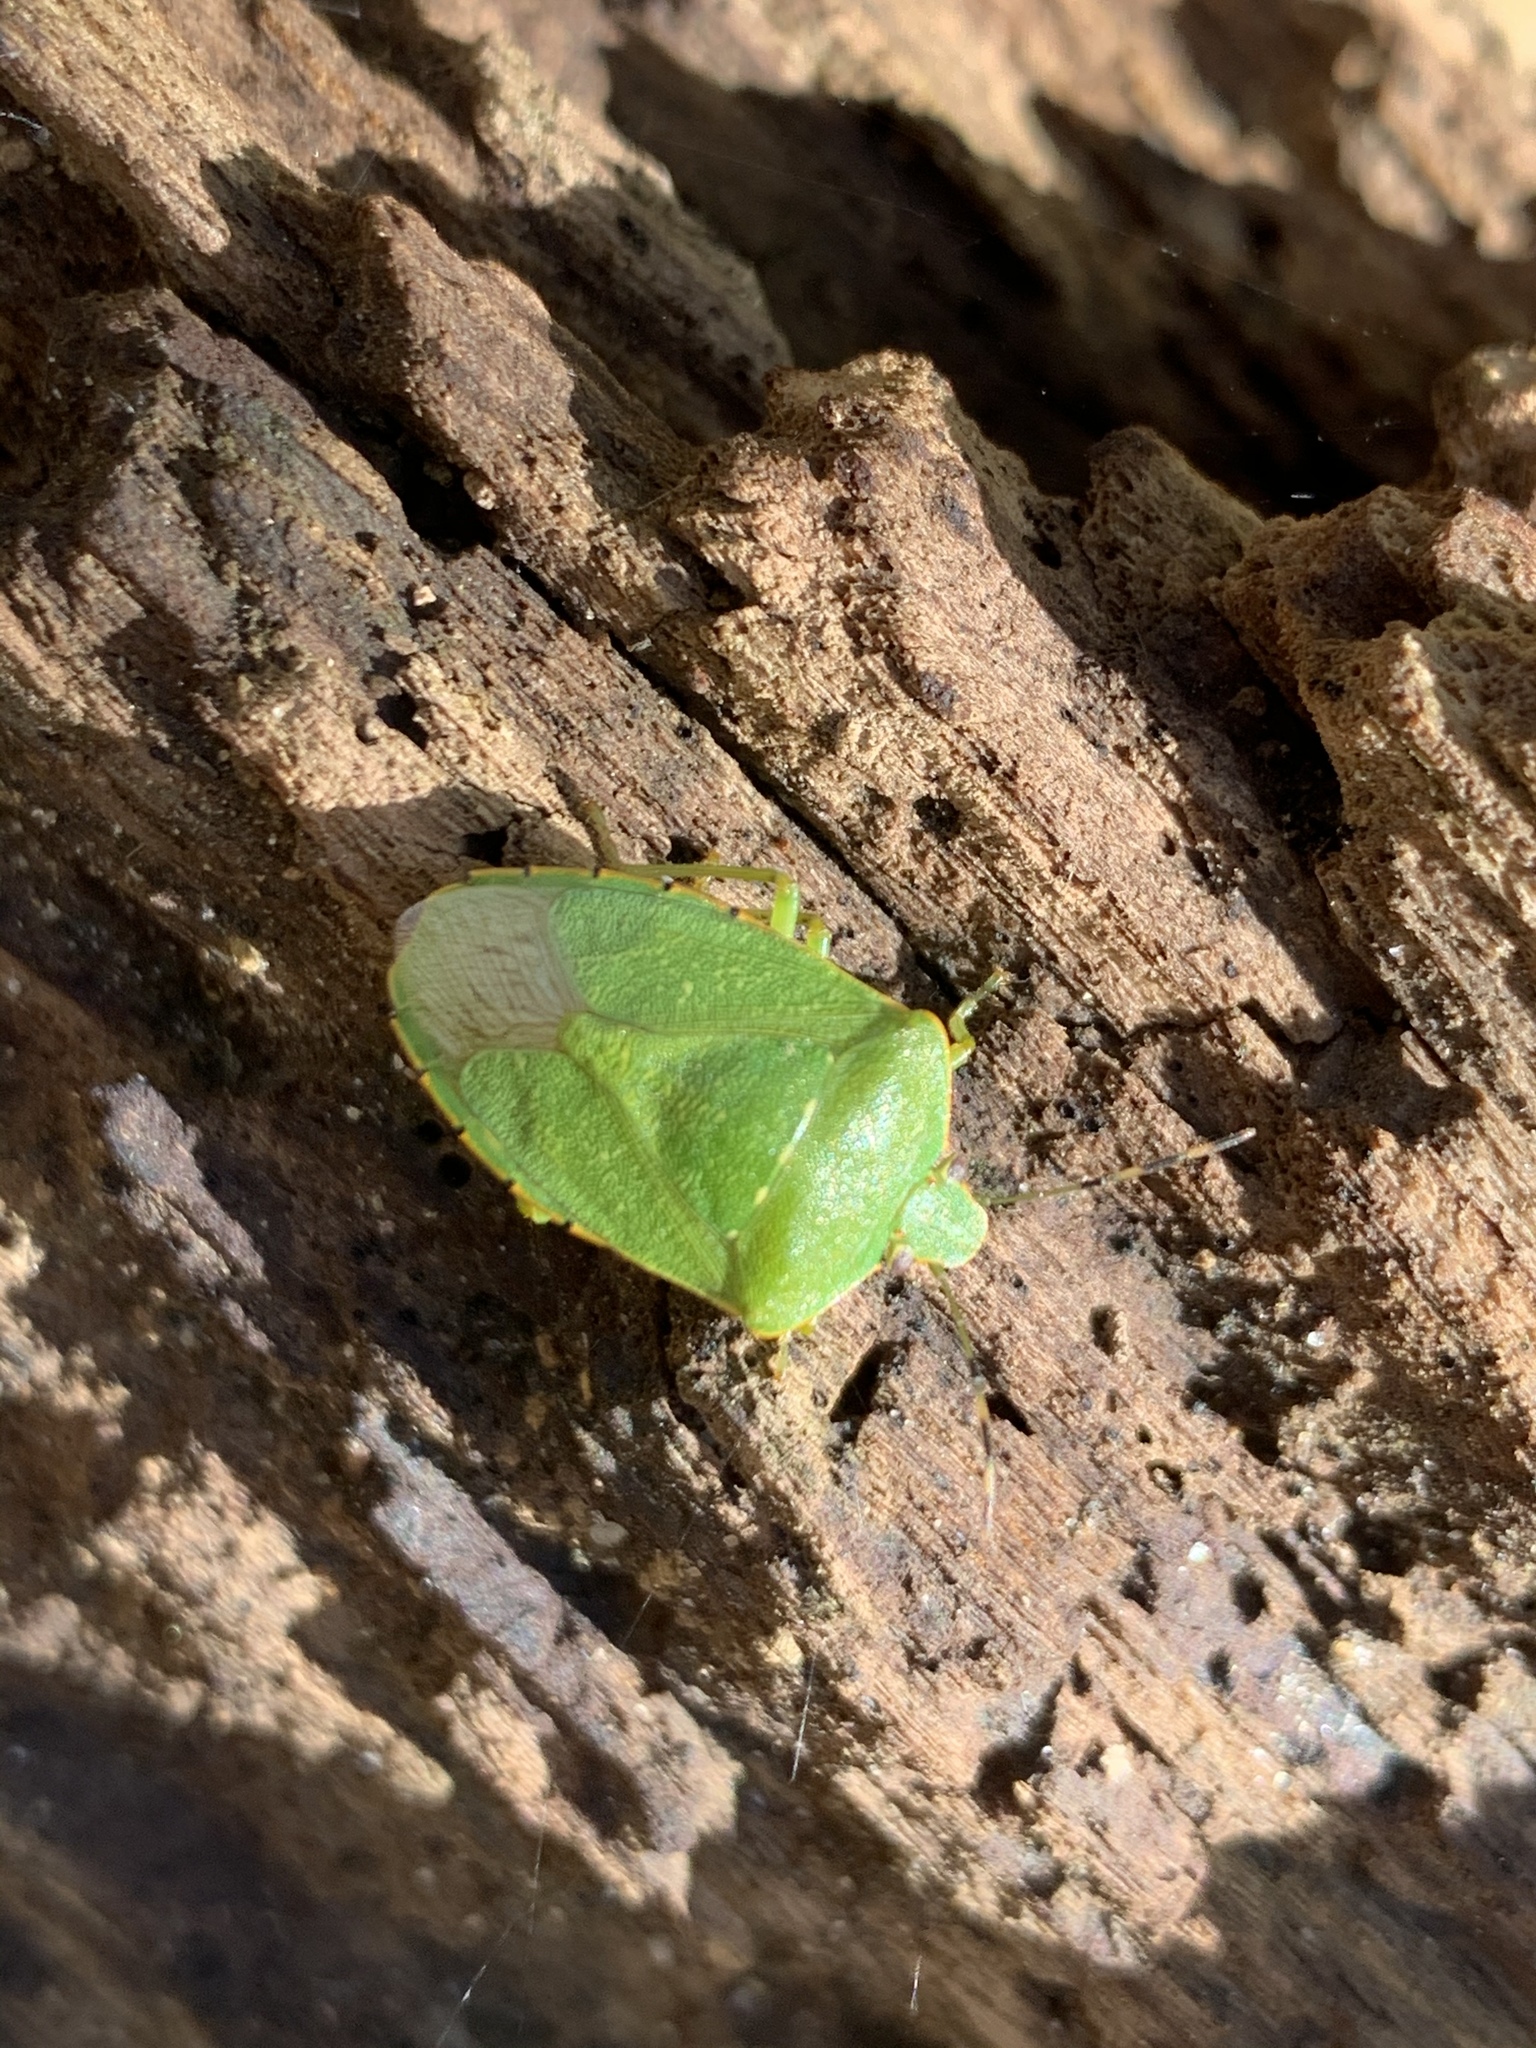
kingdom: Animalia
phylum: Arthropoda
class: Insecta
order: Hemiptera
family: Pentatomidae
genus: Chinavia
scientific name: Chinavia hilaris
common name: Green stink bug
